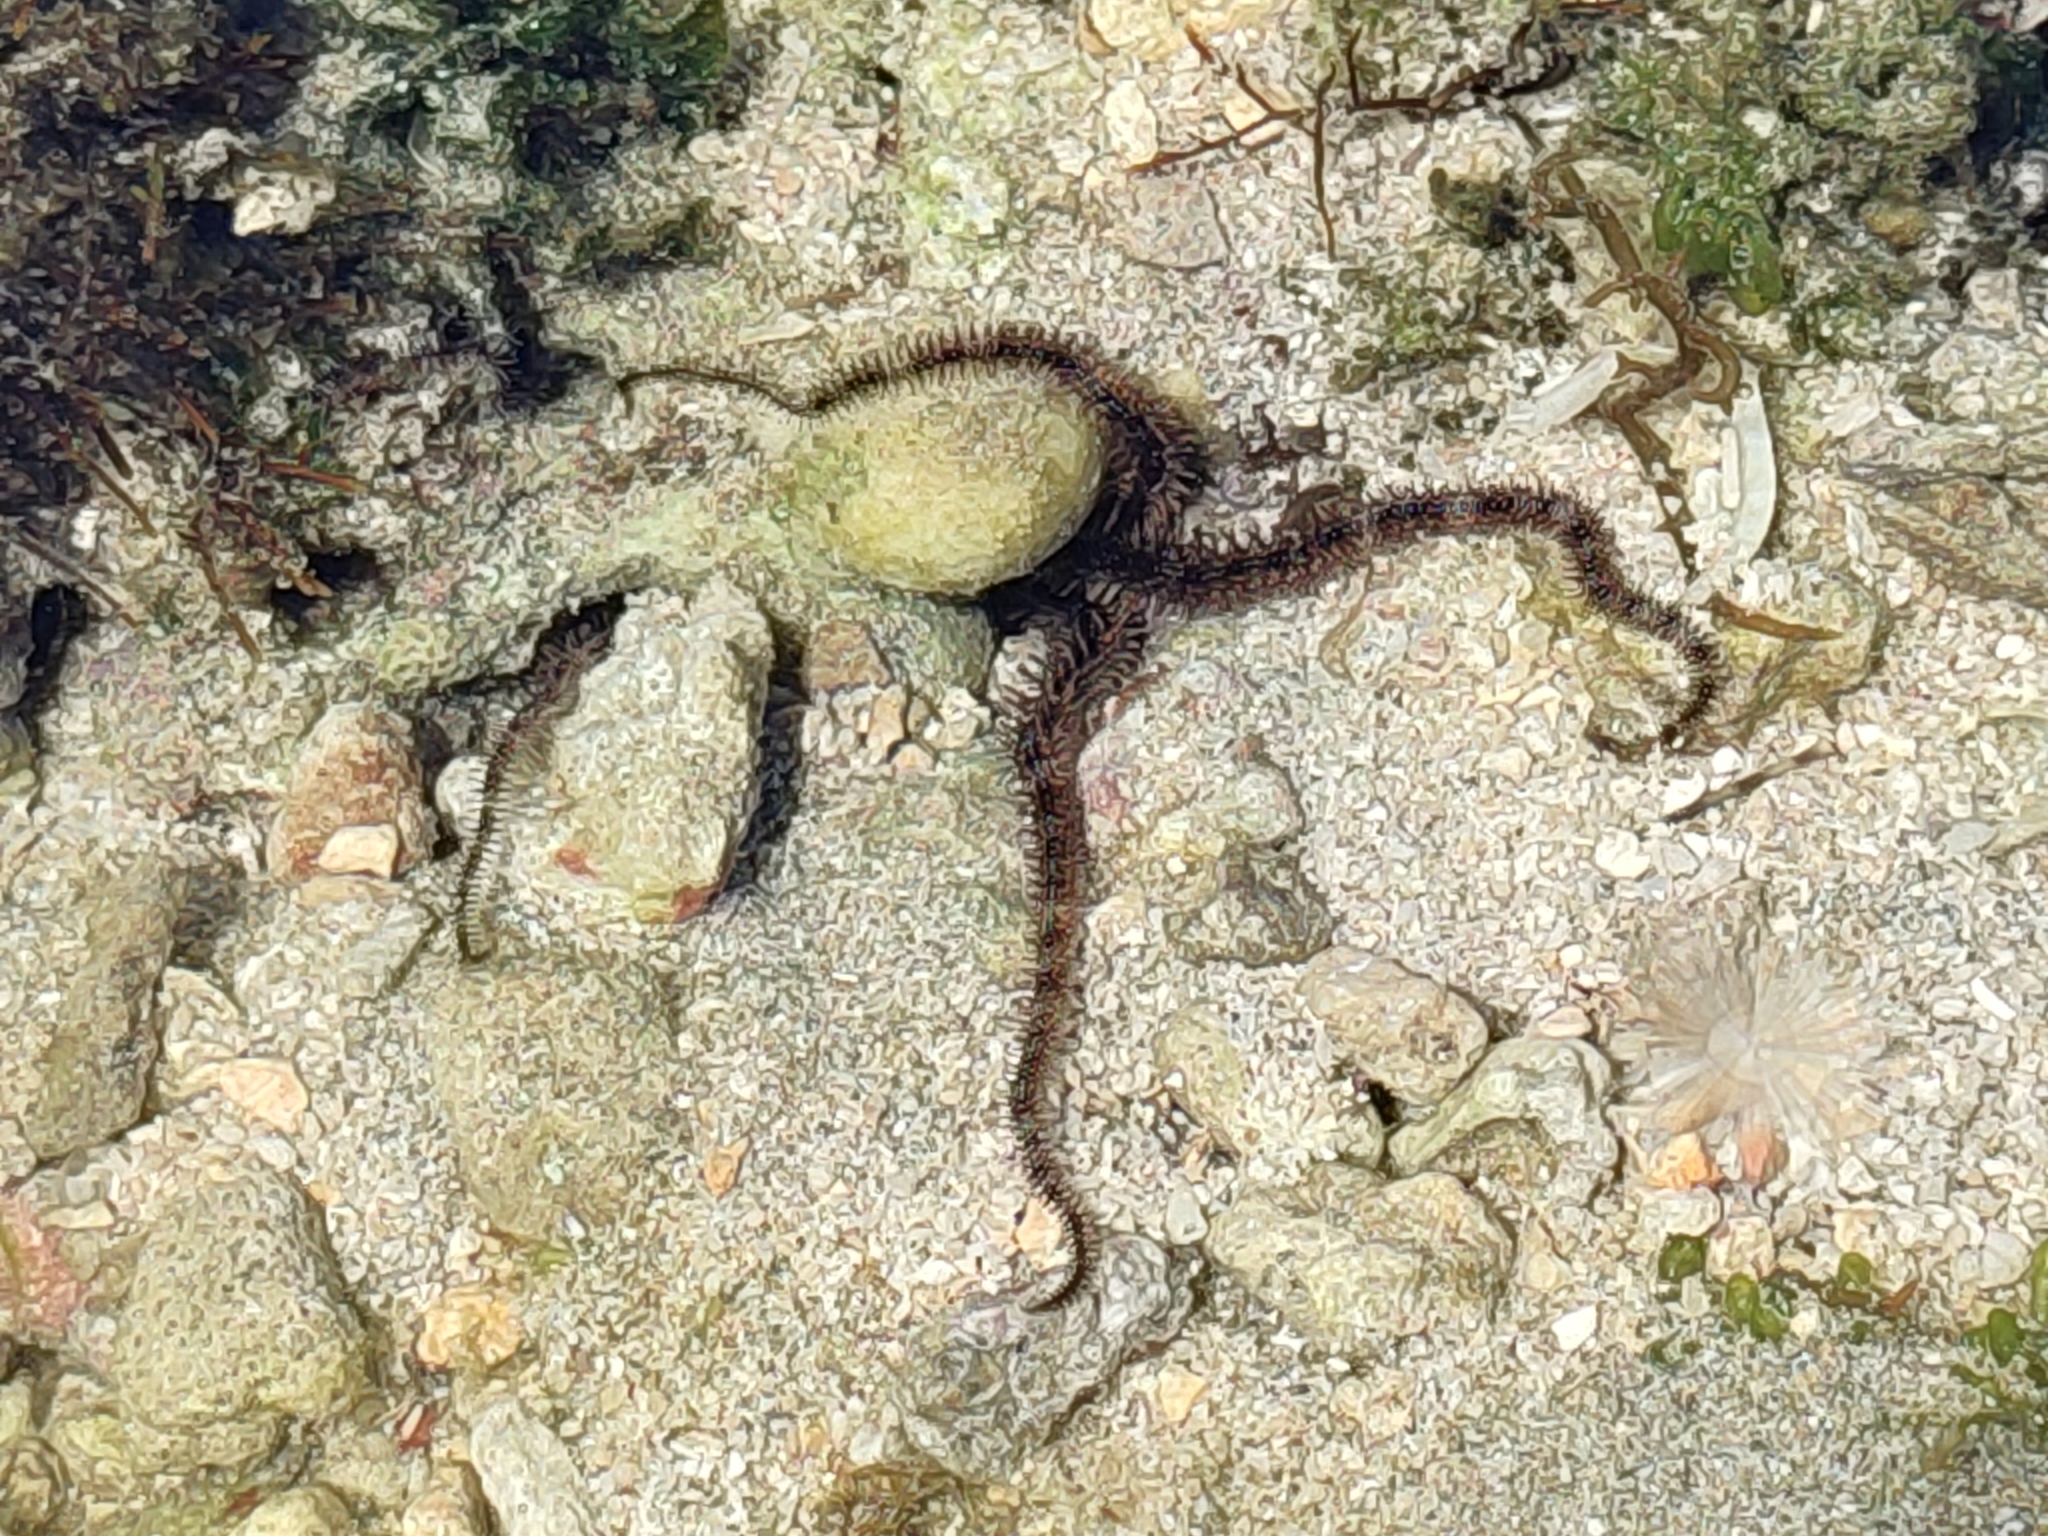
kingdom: Animalia
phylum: Echinodermata
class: Ophiuroidea
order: Ophiacanthida
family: Ophiocomidae
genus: Ophiocoma
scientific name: Ophiocoma scolopendrina
